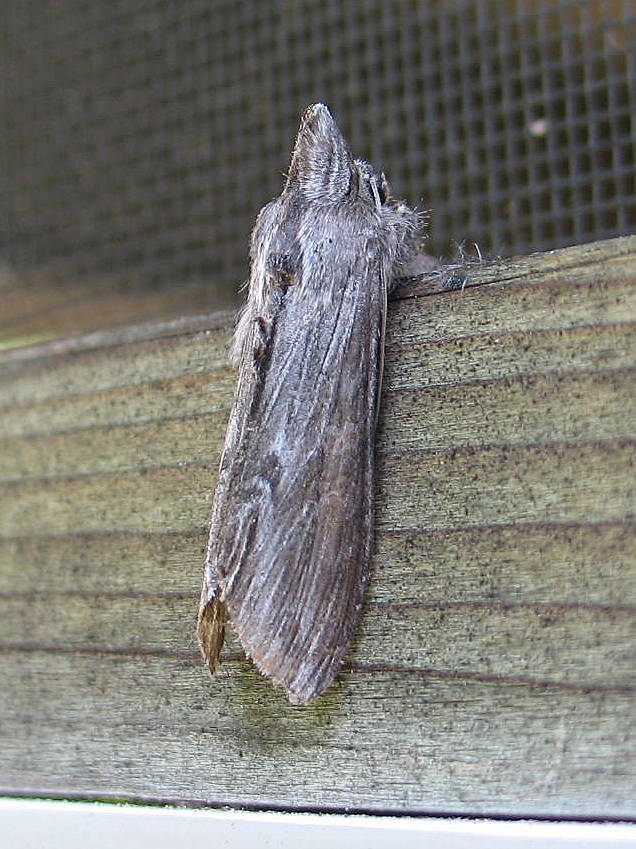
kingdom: Animalia
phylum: Arthropoda
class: Insecta
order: Lepidoptera
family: Noctuidae
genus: Cucullia
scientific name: Cucullia intermedia
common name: Goldenrod cutworm
